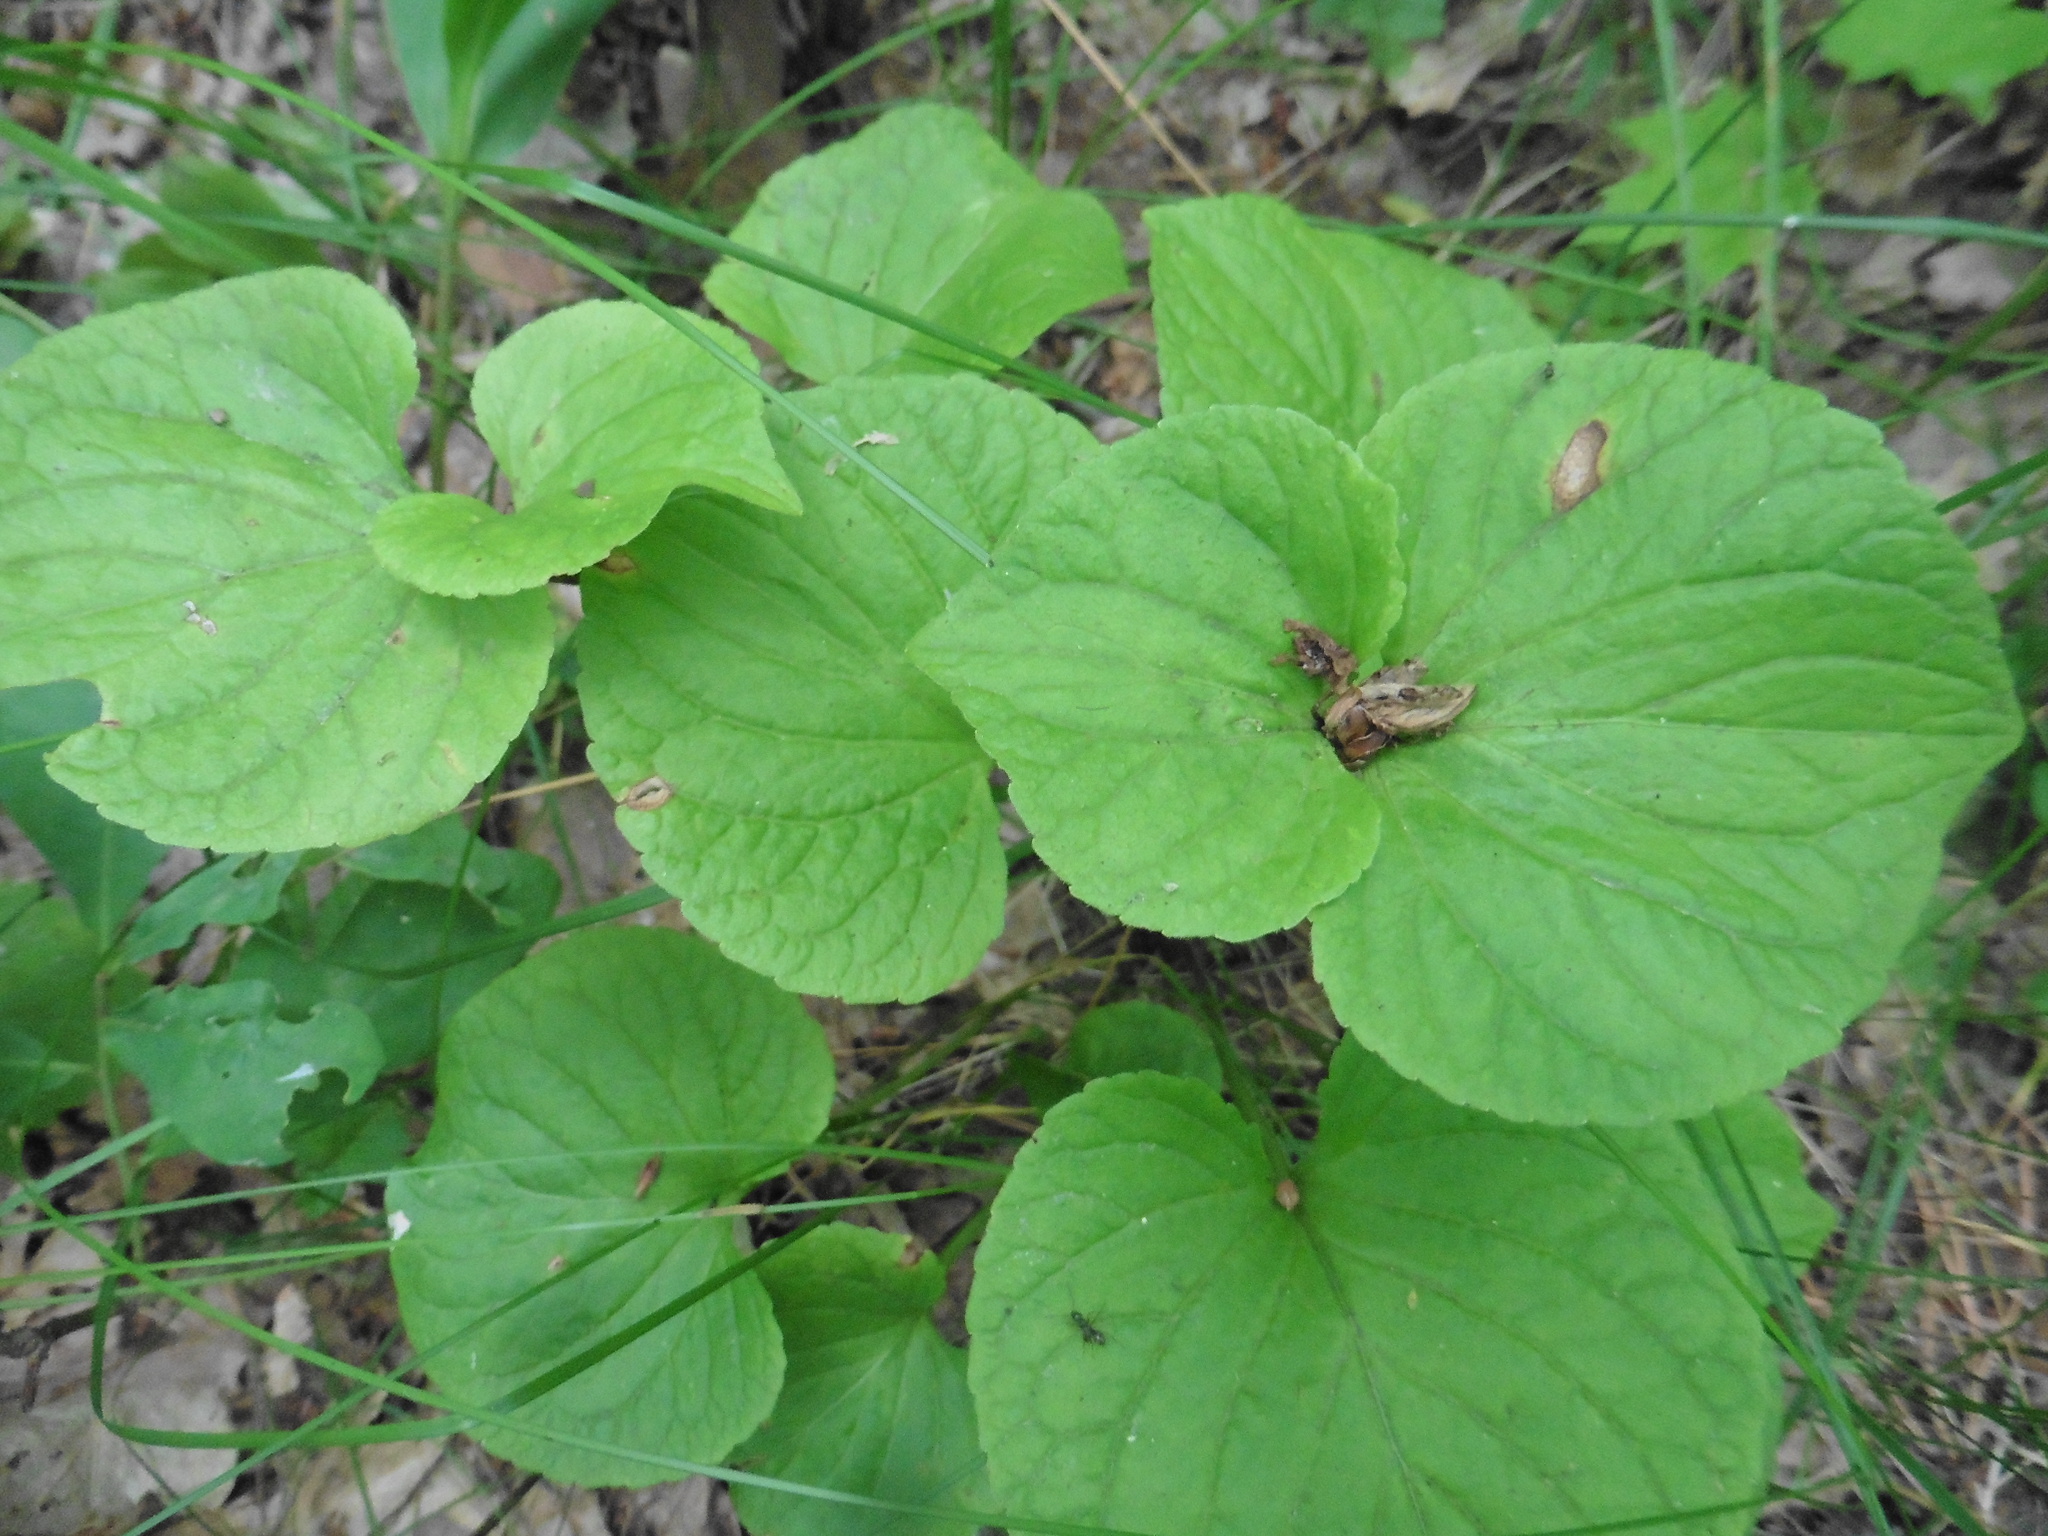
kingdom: Plantae
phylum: Tracheophyta
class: Magnoliopsida
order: Malpighiales
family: Violaceae
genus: Viola
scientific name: Viola mirabilis
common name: Wonder violet
